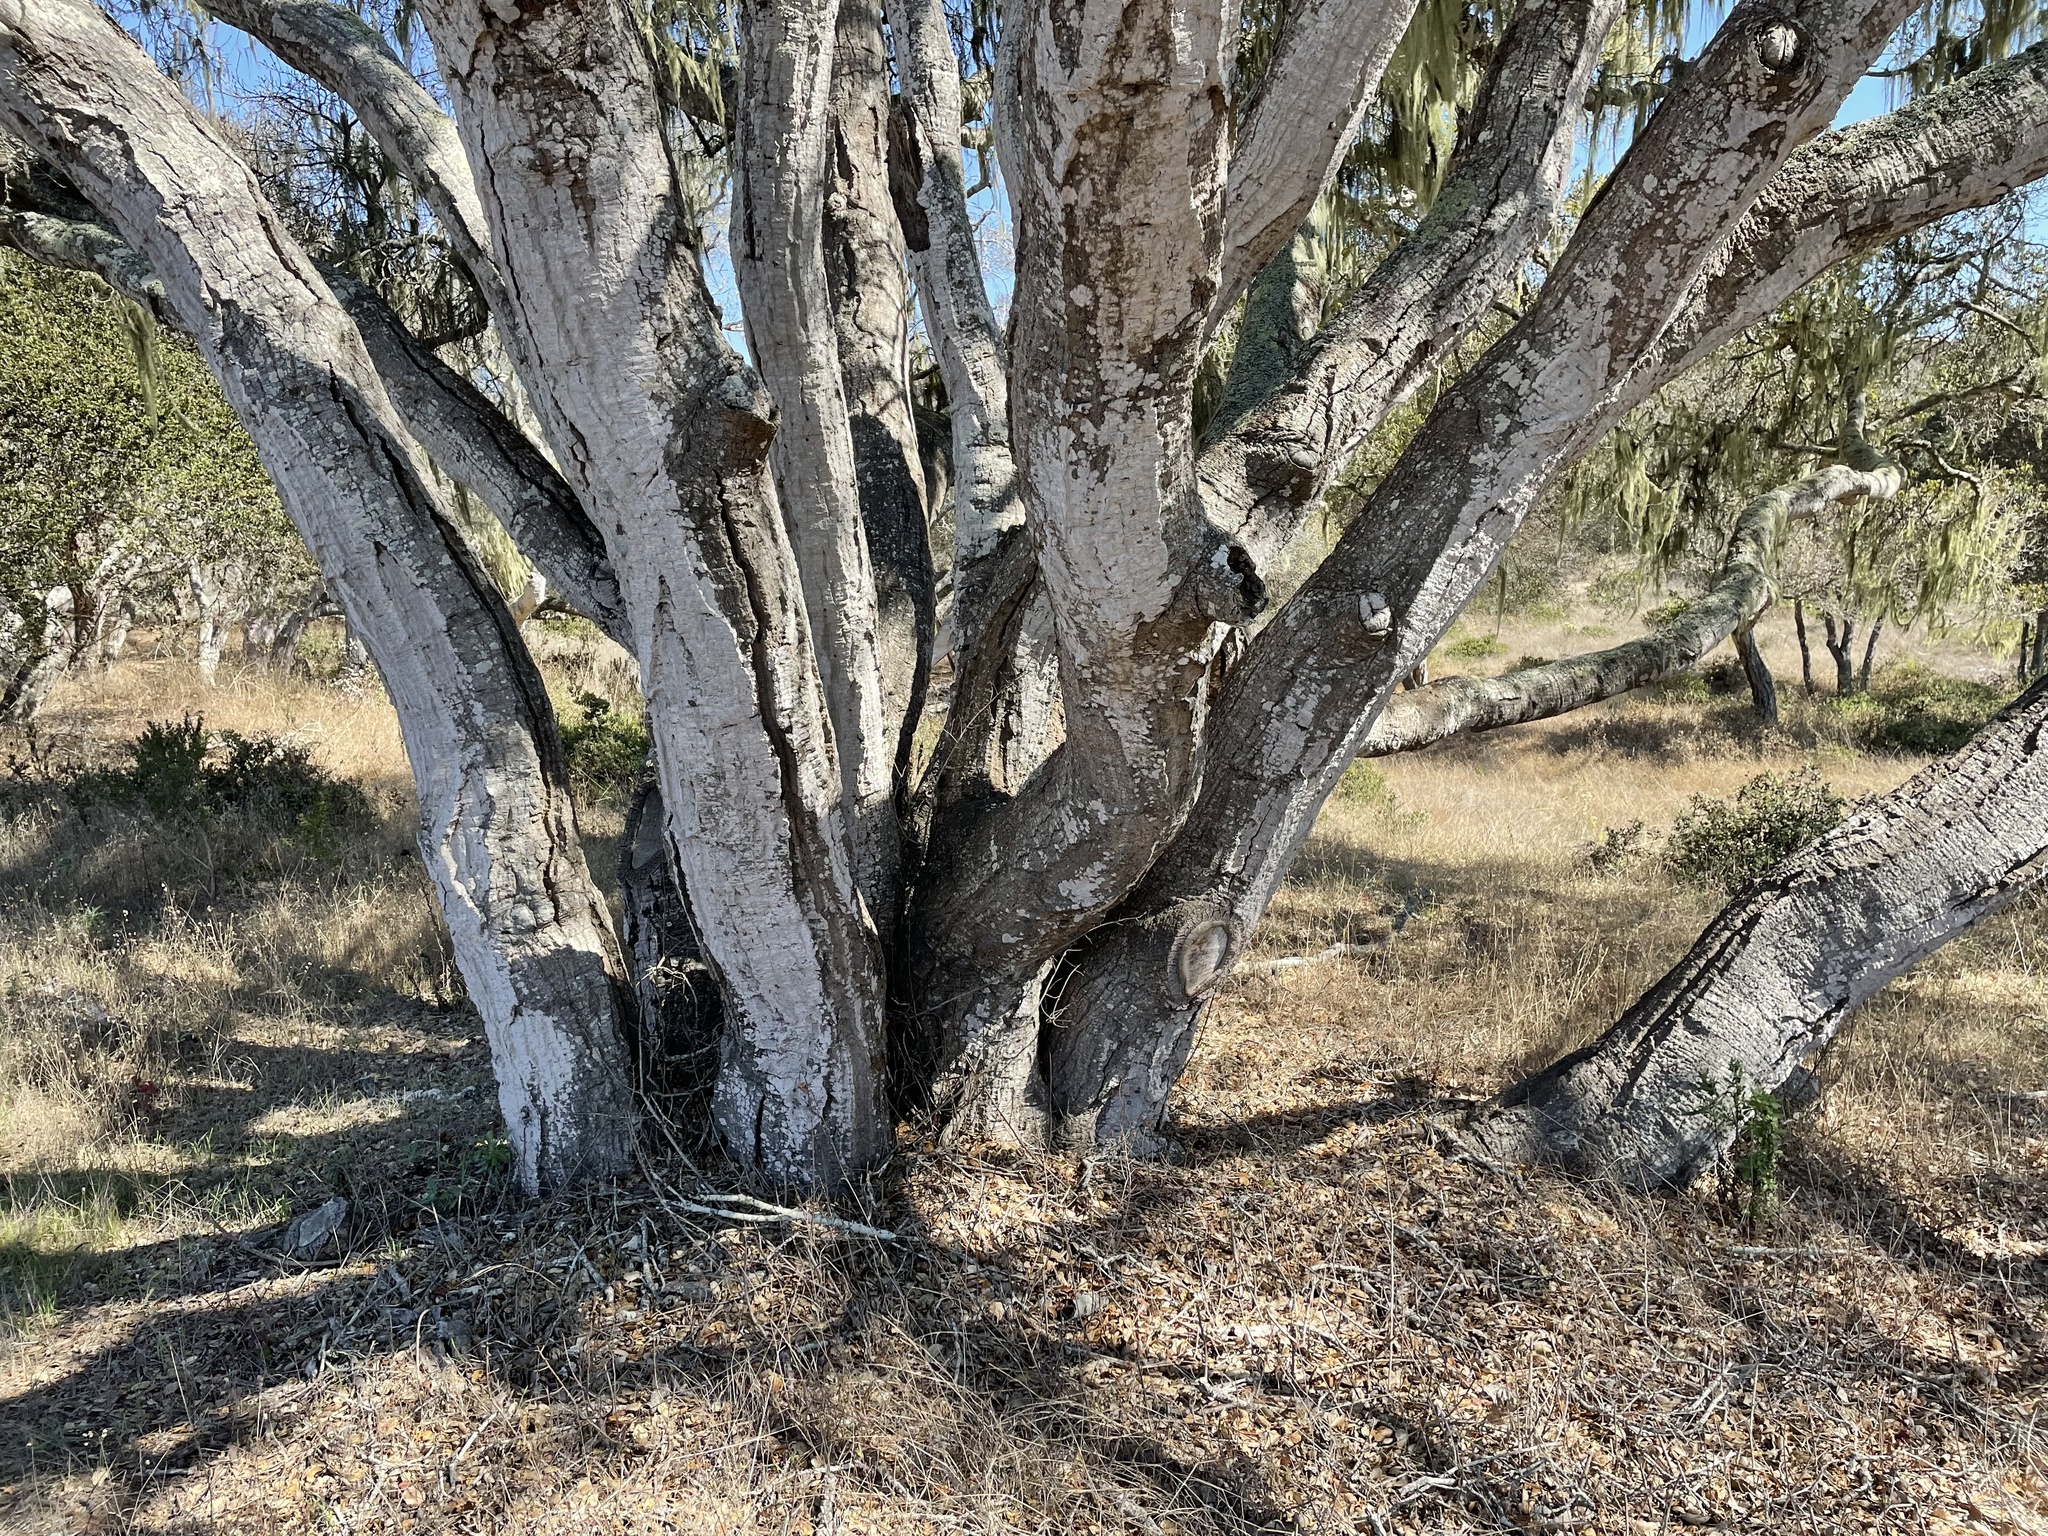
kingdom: Plantae
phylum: Tracheophyta
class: Magnoliopsida
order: Fagales
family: Fagaceae
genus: Quercus
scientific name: Quercus agrifolia
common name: California live oak
